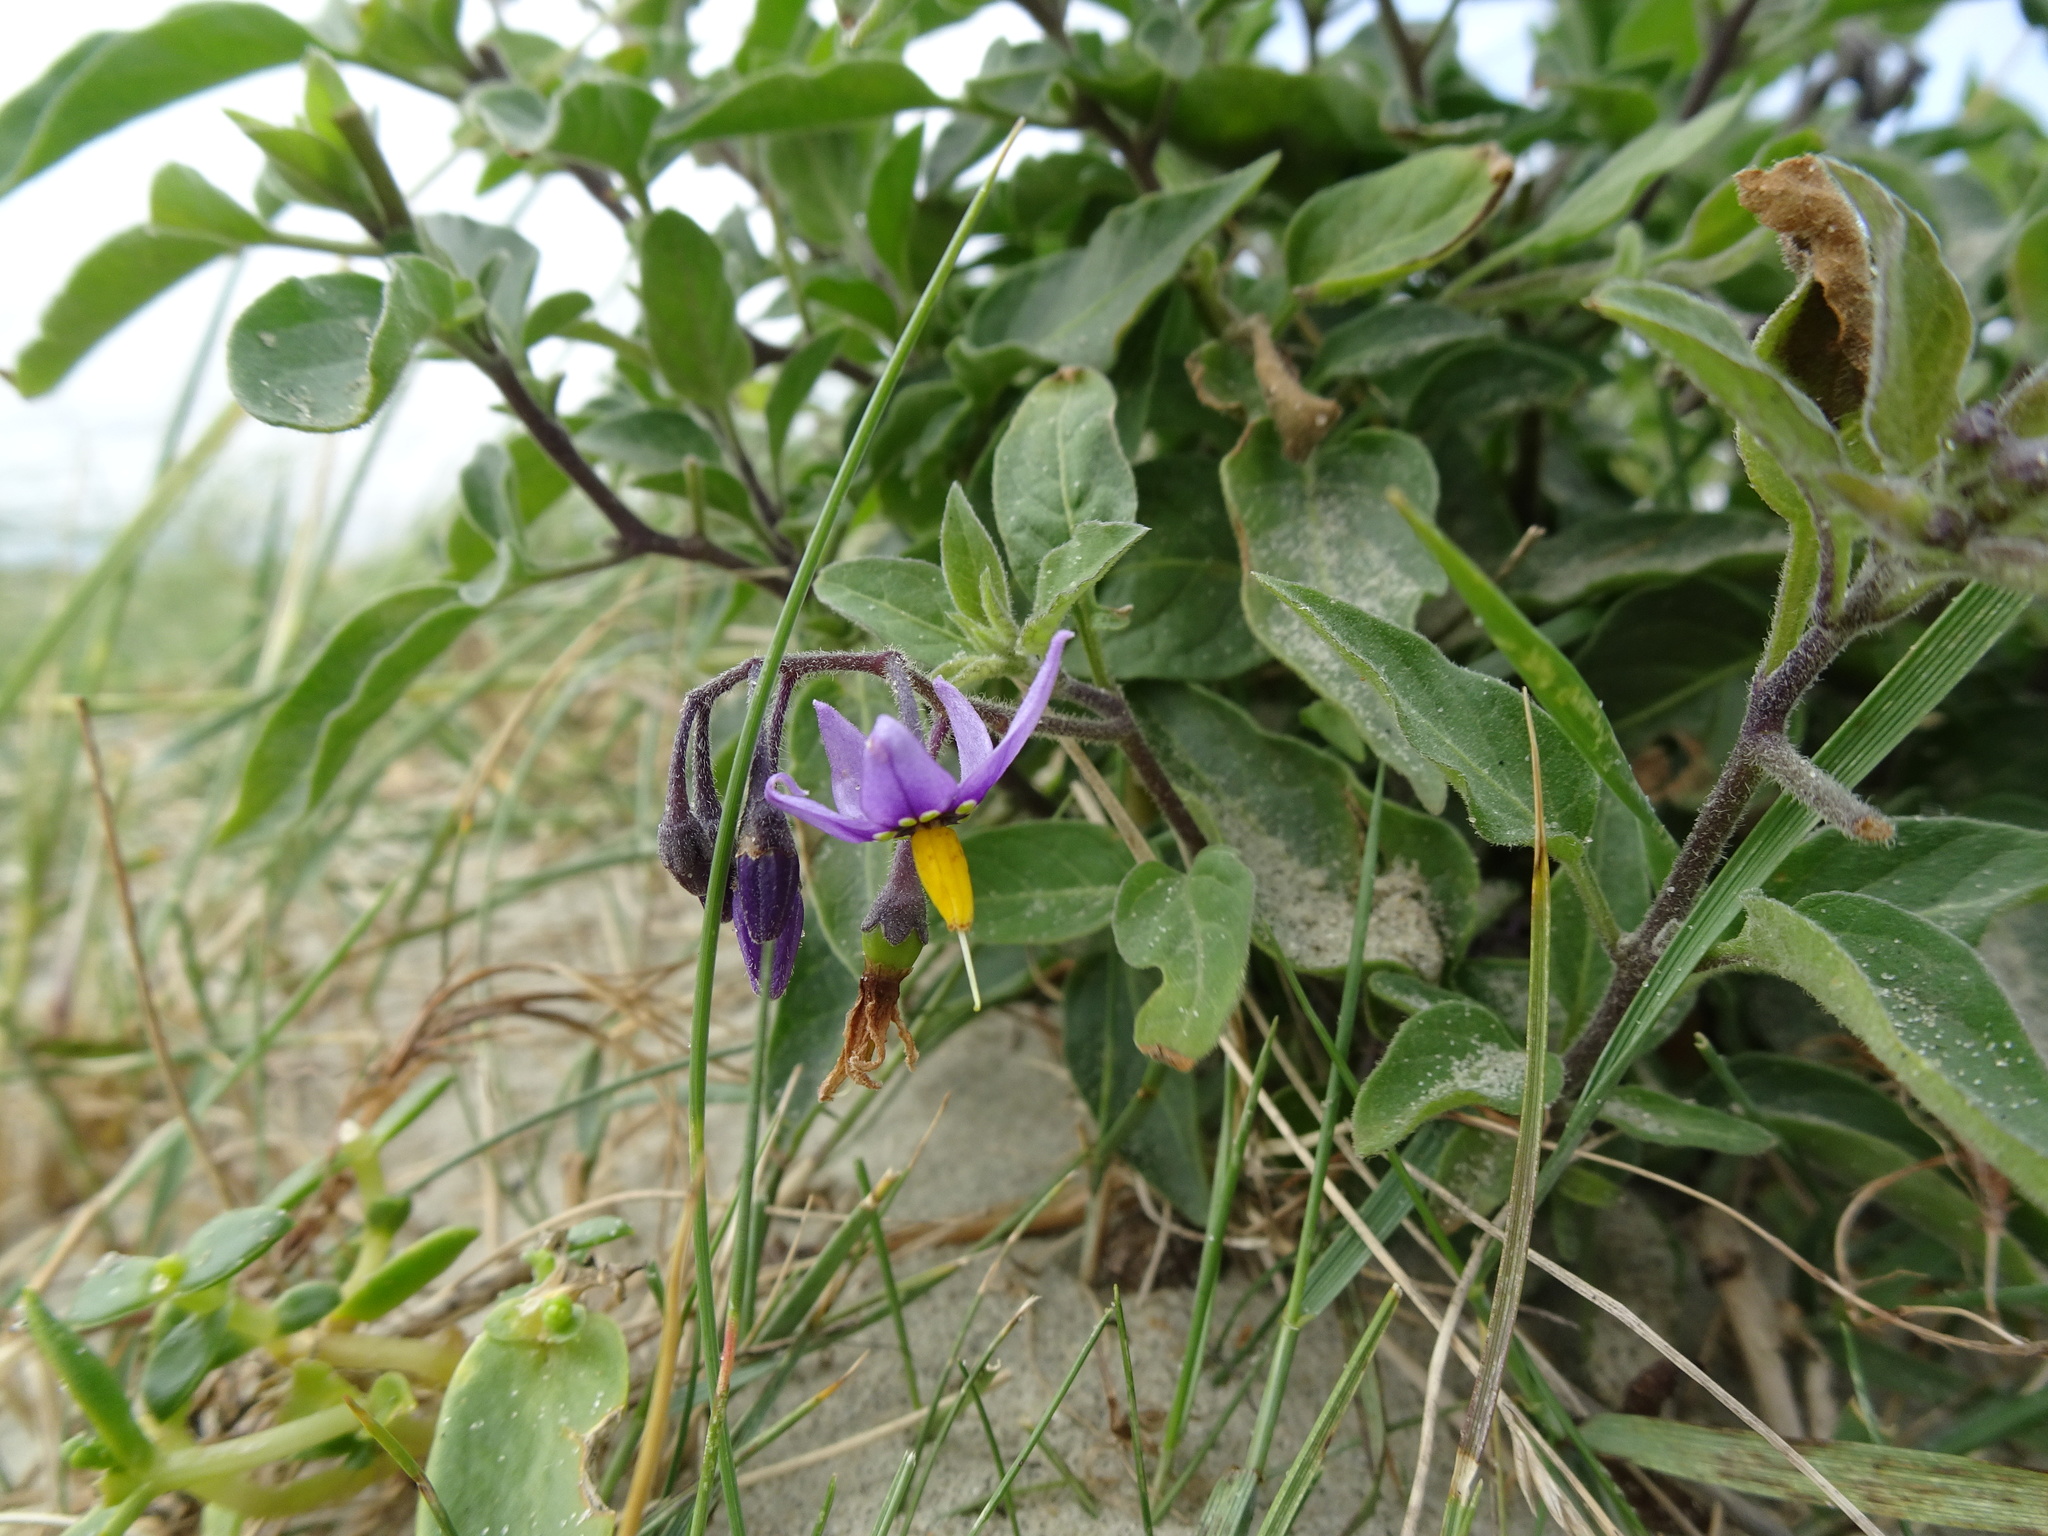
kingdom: Plantae
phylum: Tracheophyta
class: Magnoliopsida
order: Solanales
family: Solanaceae
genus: Solanum
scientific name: Solanum dulcamara
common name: Climbing nightshade
